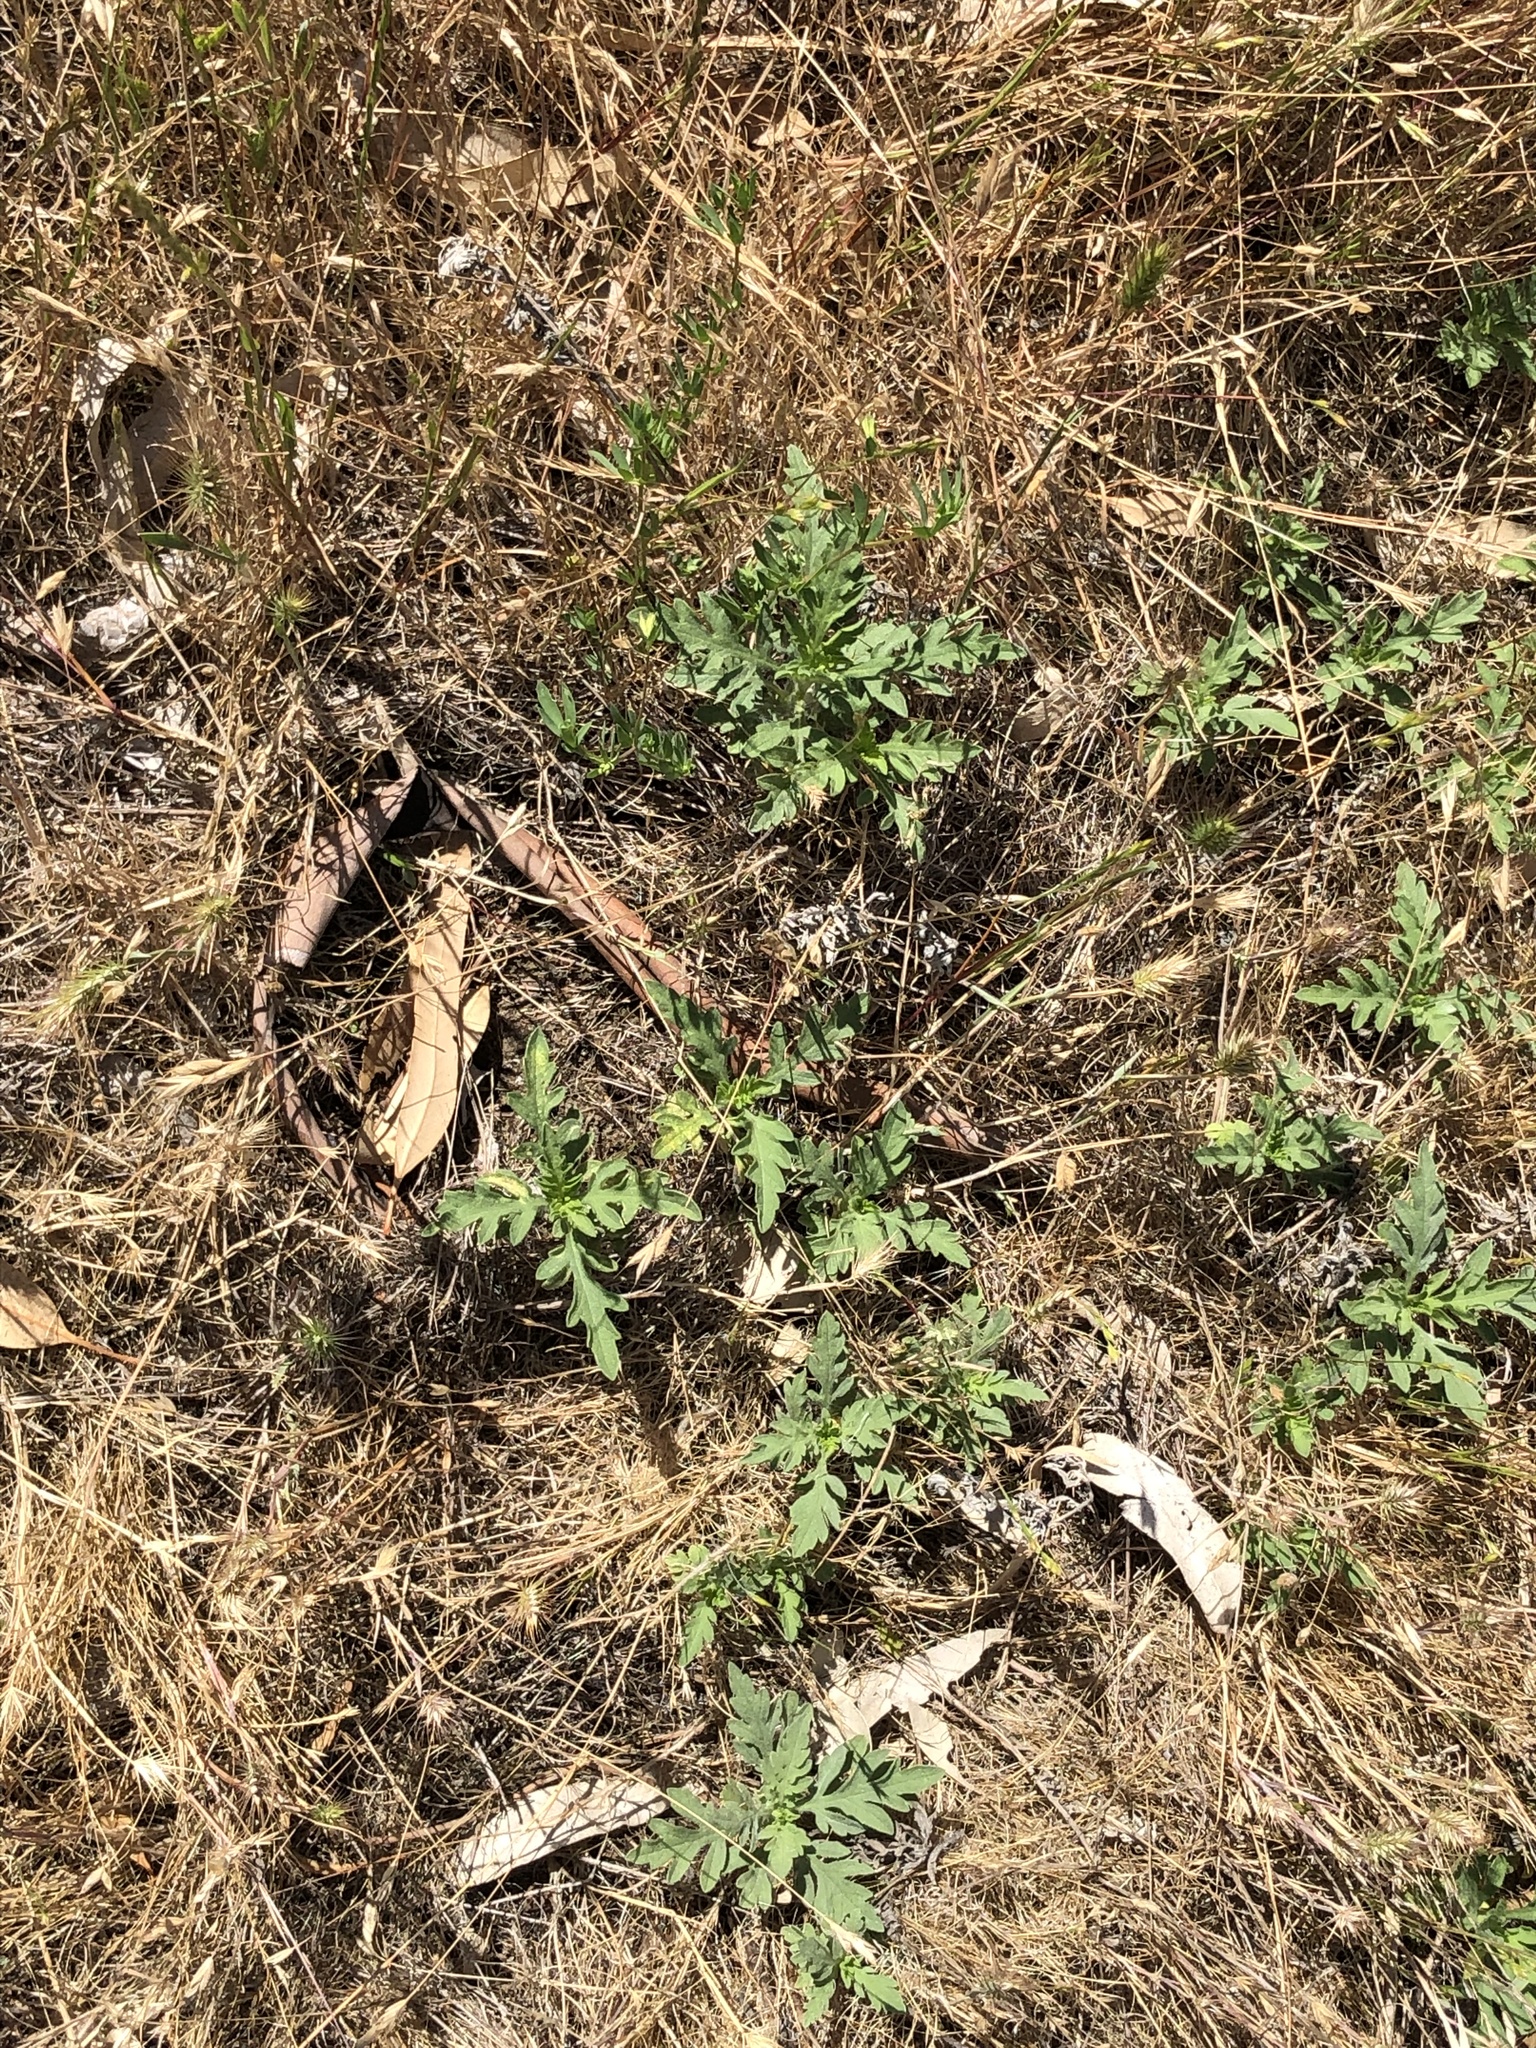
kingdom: Plantae
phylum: Tracheophyta
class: Magnoliopsida
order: Asterales
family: Asteraceae
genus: Ambrosia
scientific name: Ambrosia psilostachya
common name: Perennial ragweed
